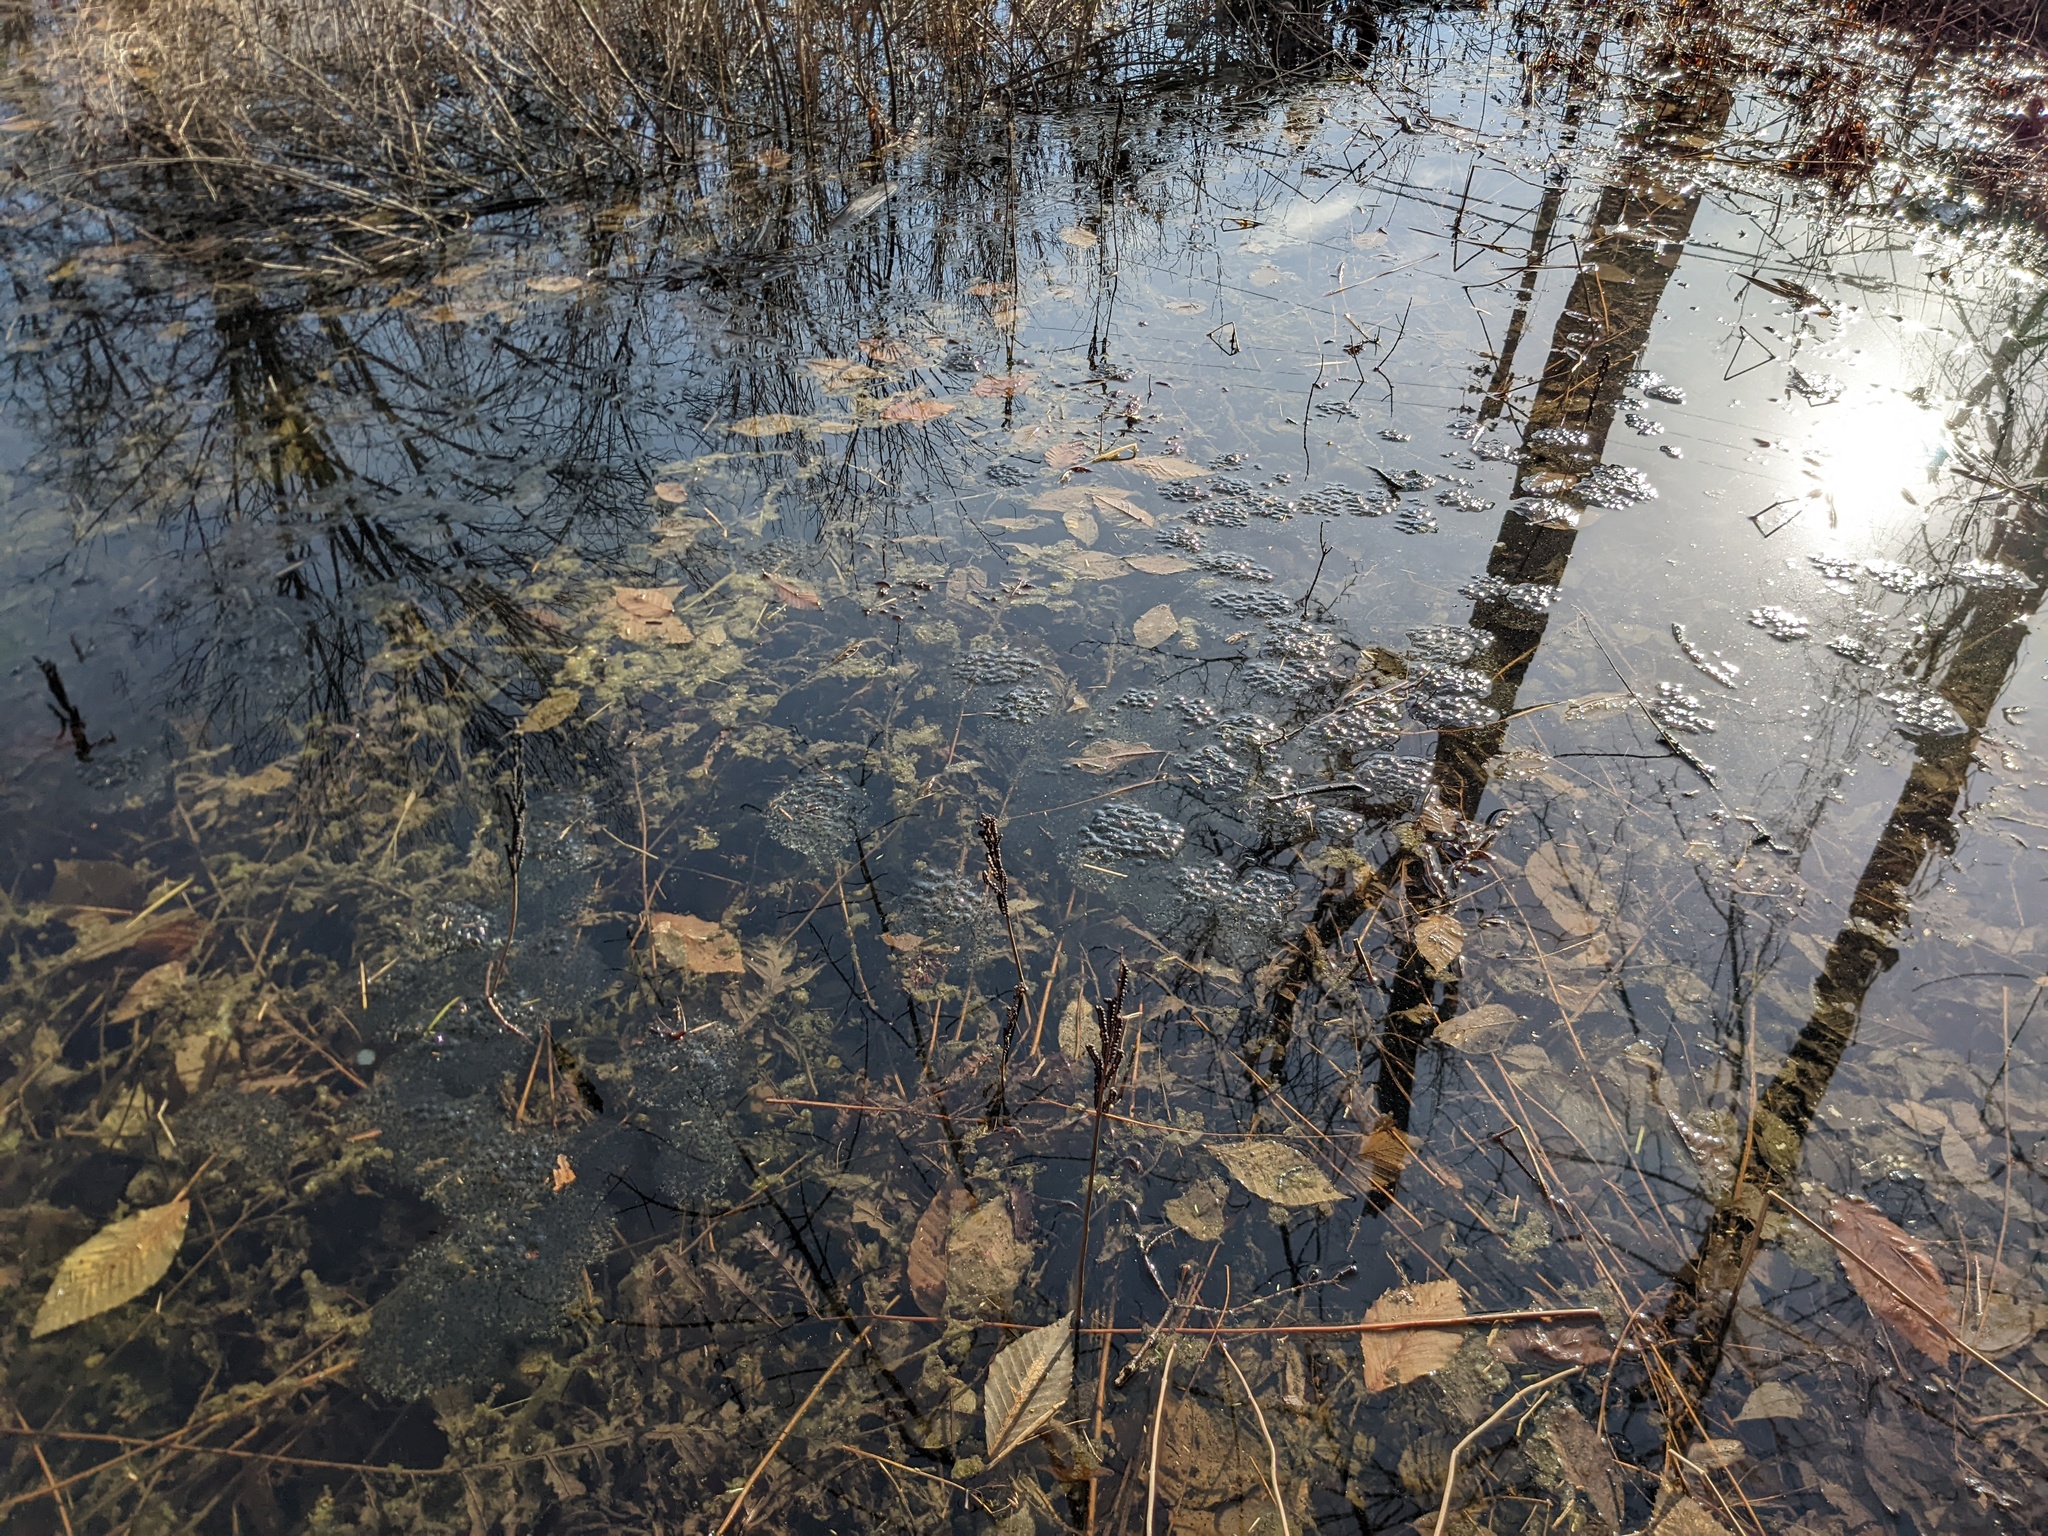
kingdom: Animalia
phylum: Chordata
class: Amphibia
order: Anura
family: Ranidae
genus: Lithobates
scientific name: Lithobates sylvaticus
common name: Wood frog
